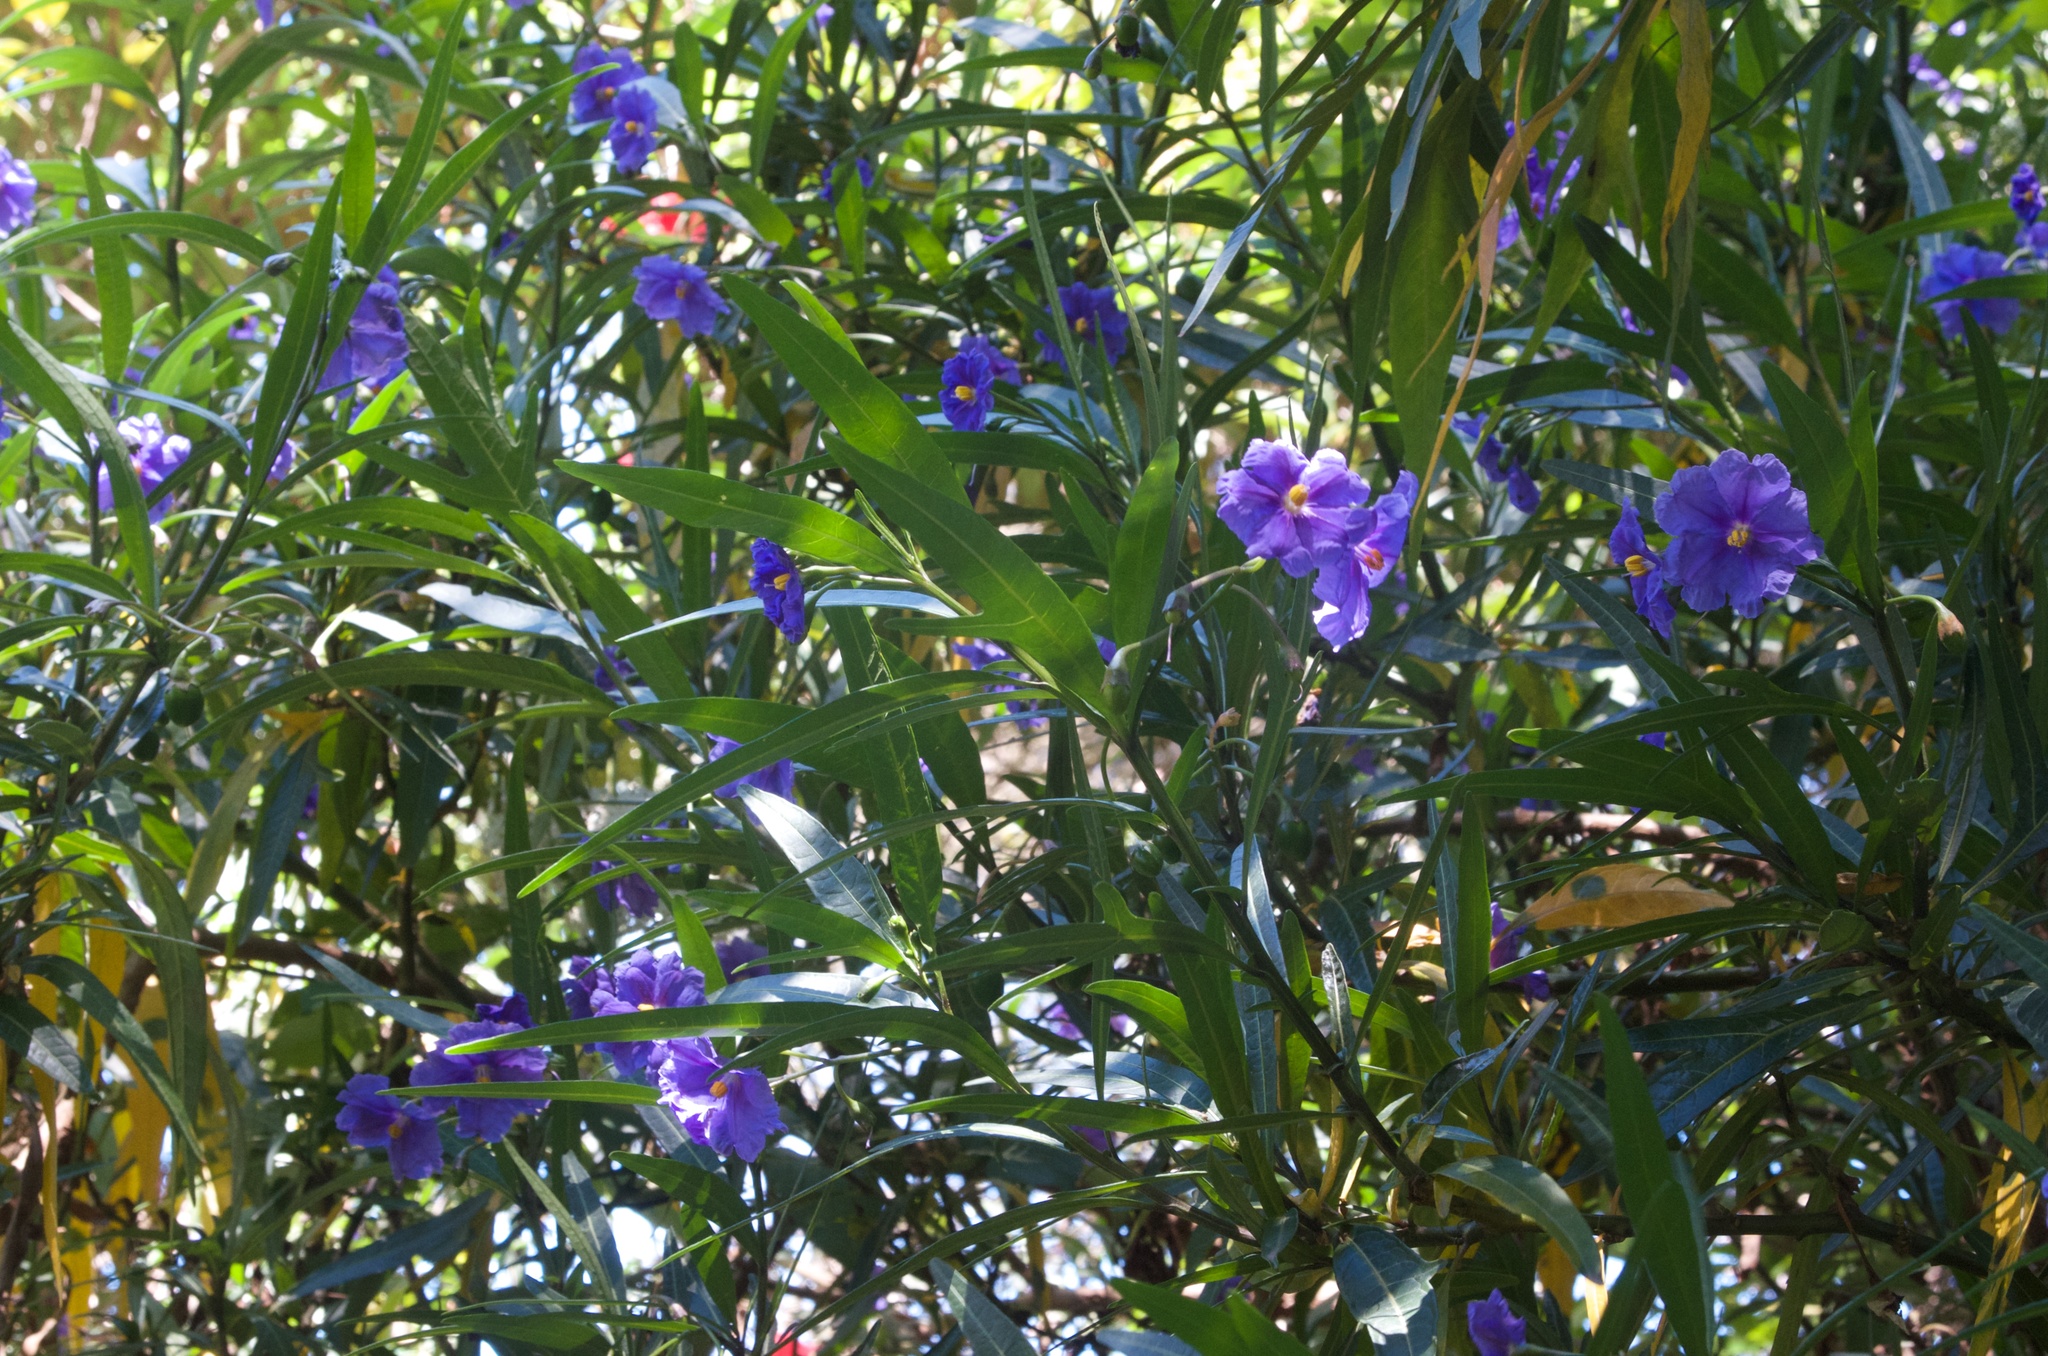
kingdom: Plantae
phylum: Tracheophyta
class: Magnoliopsida
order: Solanales
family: Solanaceae
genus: Solanum
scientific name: Solanum laciniatum
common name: Kangaroo-apple
